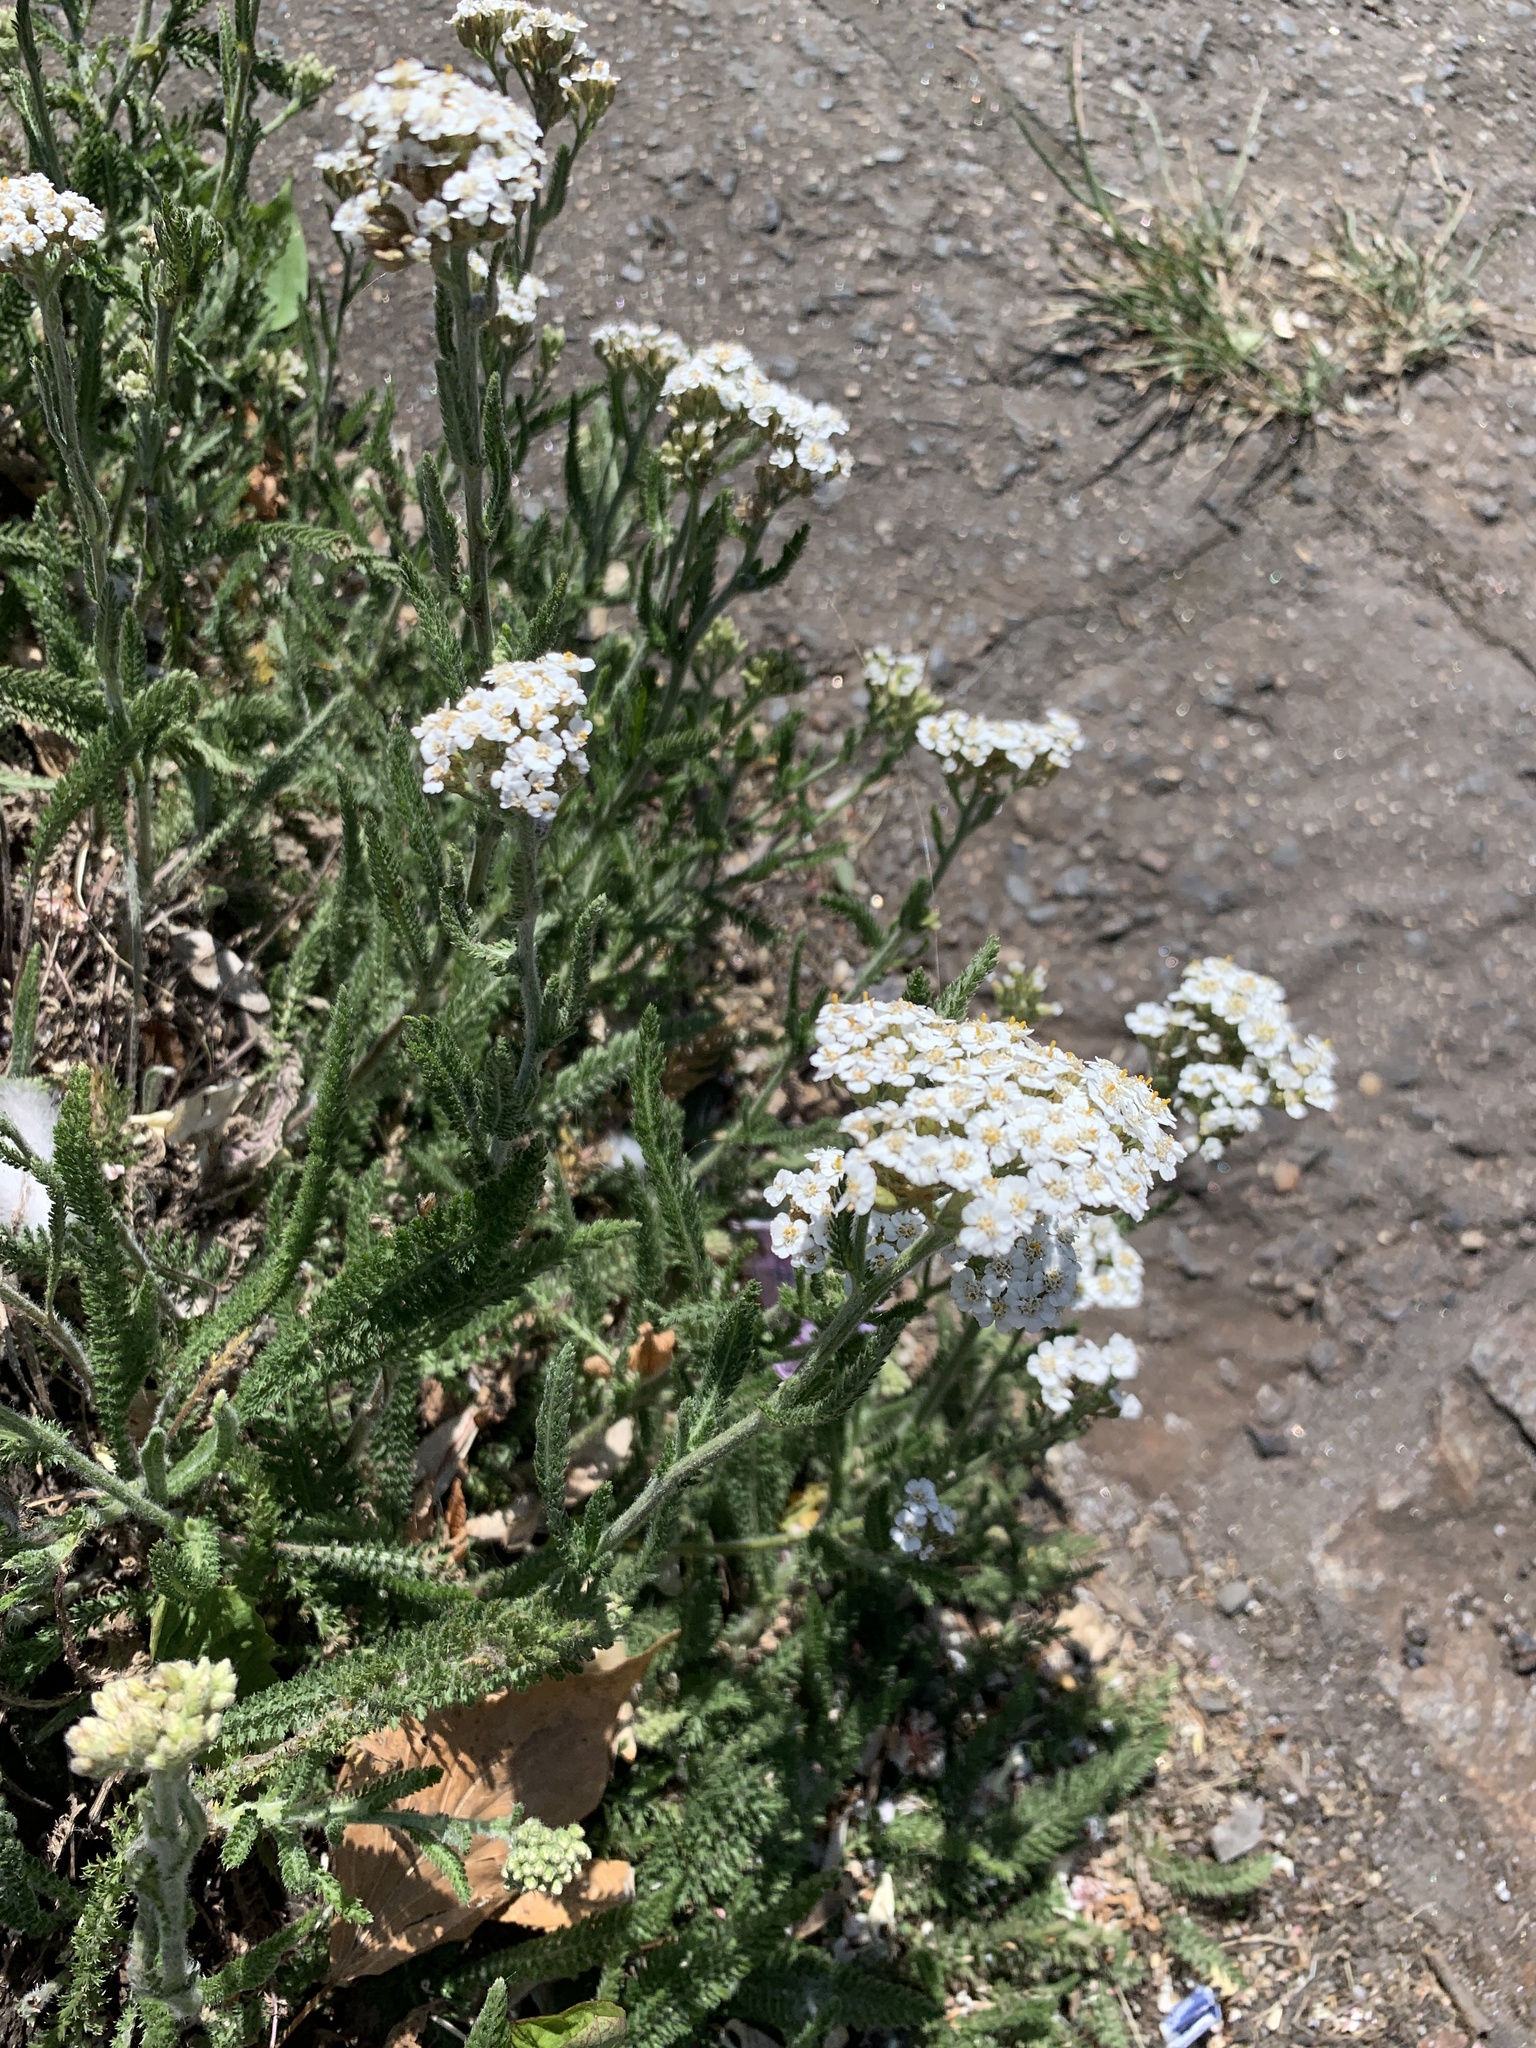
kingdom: Plantae
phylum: Tracheophyta
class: Magnoliopsida
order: Asterales
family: Asteraceae
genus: Achillea
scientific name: Achillea millefolium
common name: Yarrow
